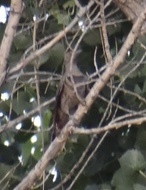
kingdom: Animalia
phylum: Chordata
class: Aves
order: Piciformes
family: Picidae
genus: Colaptes
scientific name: Colaptes auratus
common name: Northern flicker
